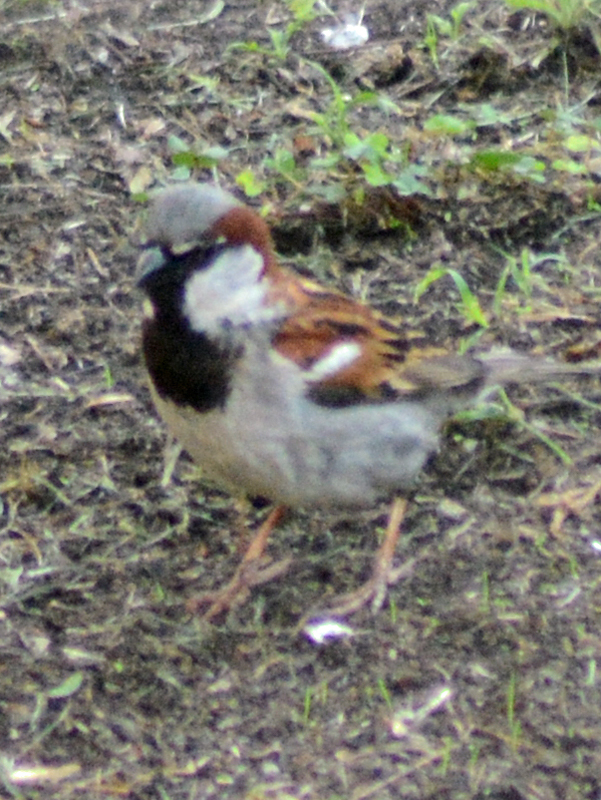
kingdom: Animalia
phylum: Chordata
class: Aves
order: Passeriformes
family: Passeridae
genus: Passer
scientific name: Passer domesticus
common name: House sparrow
